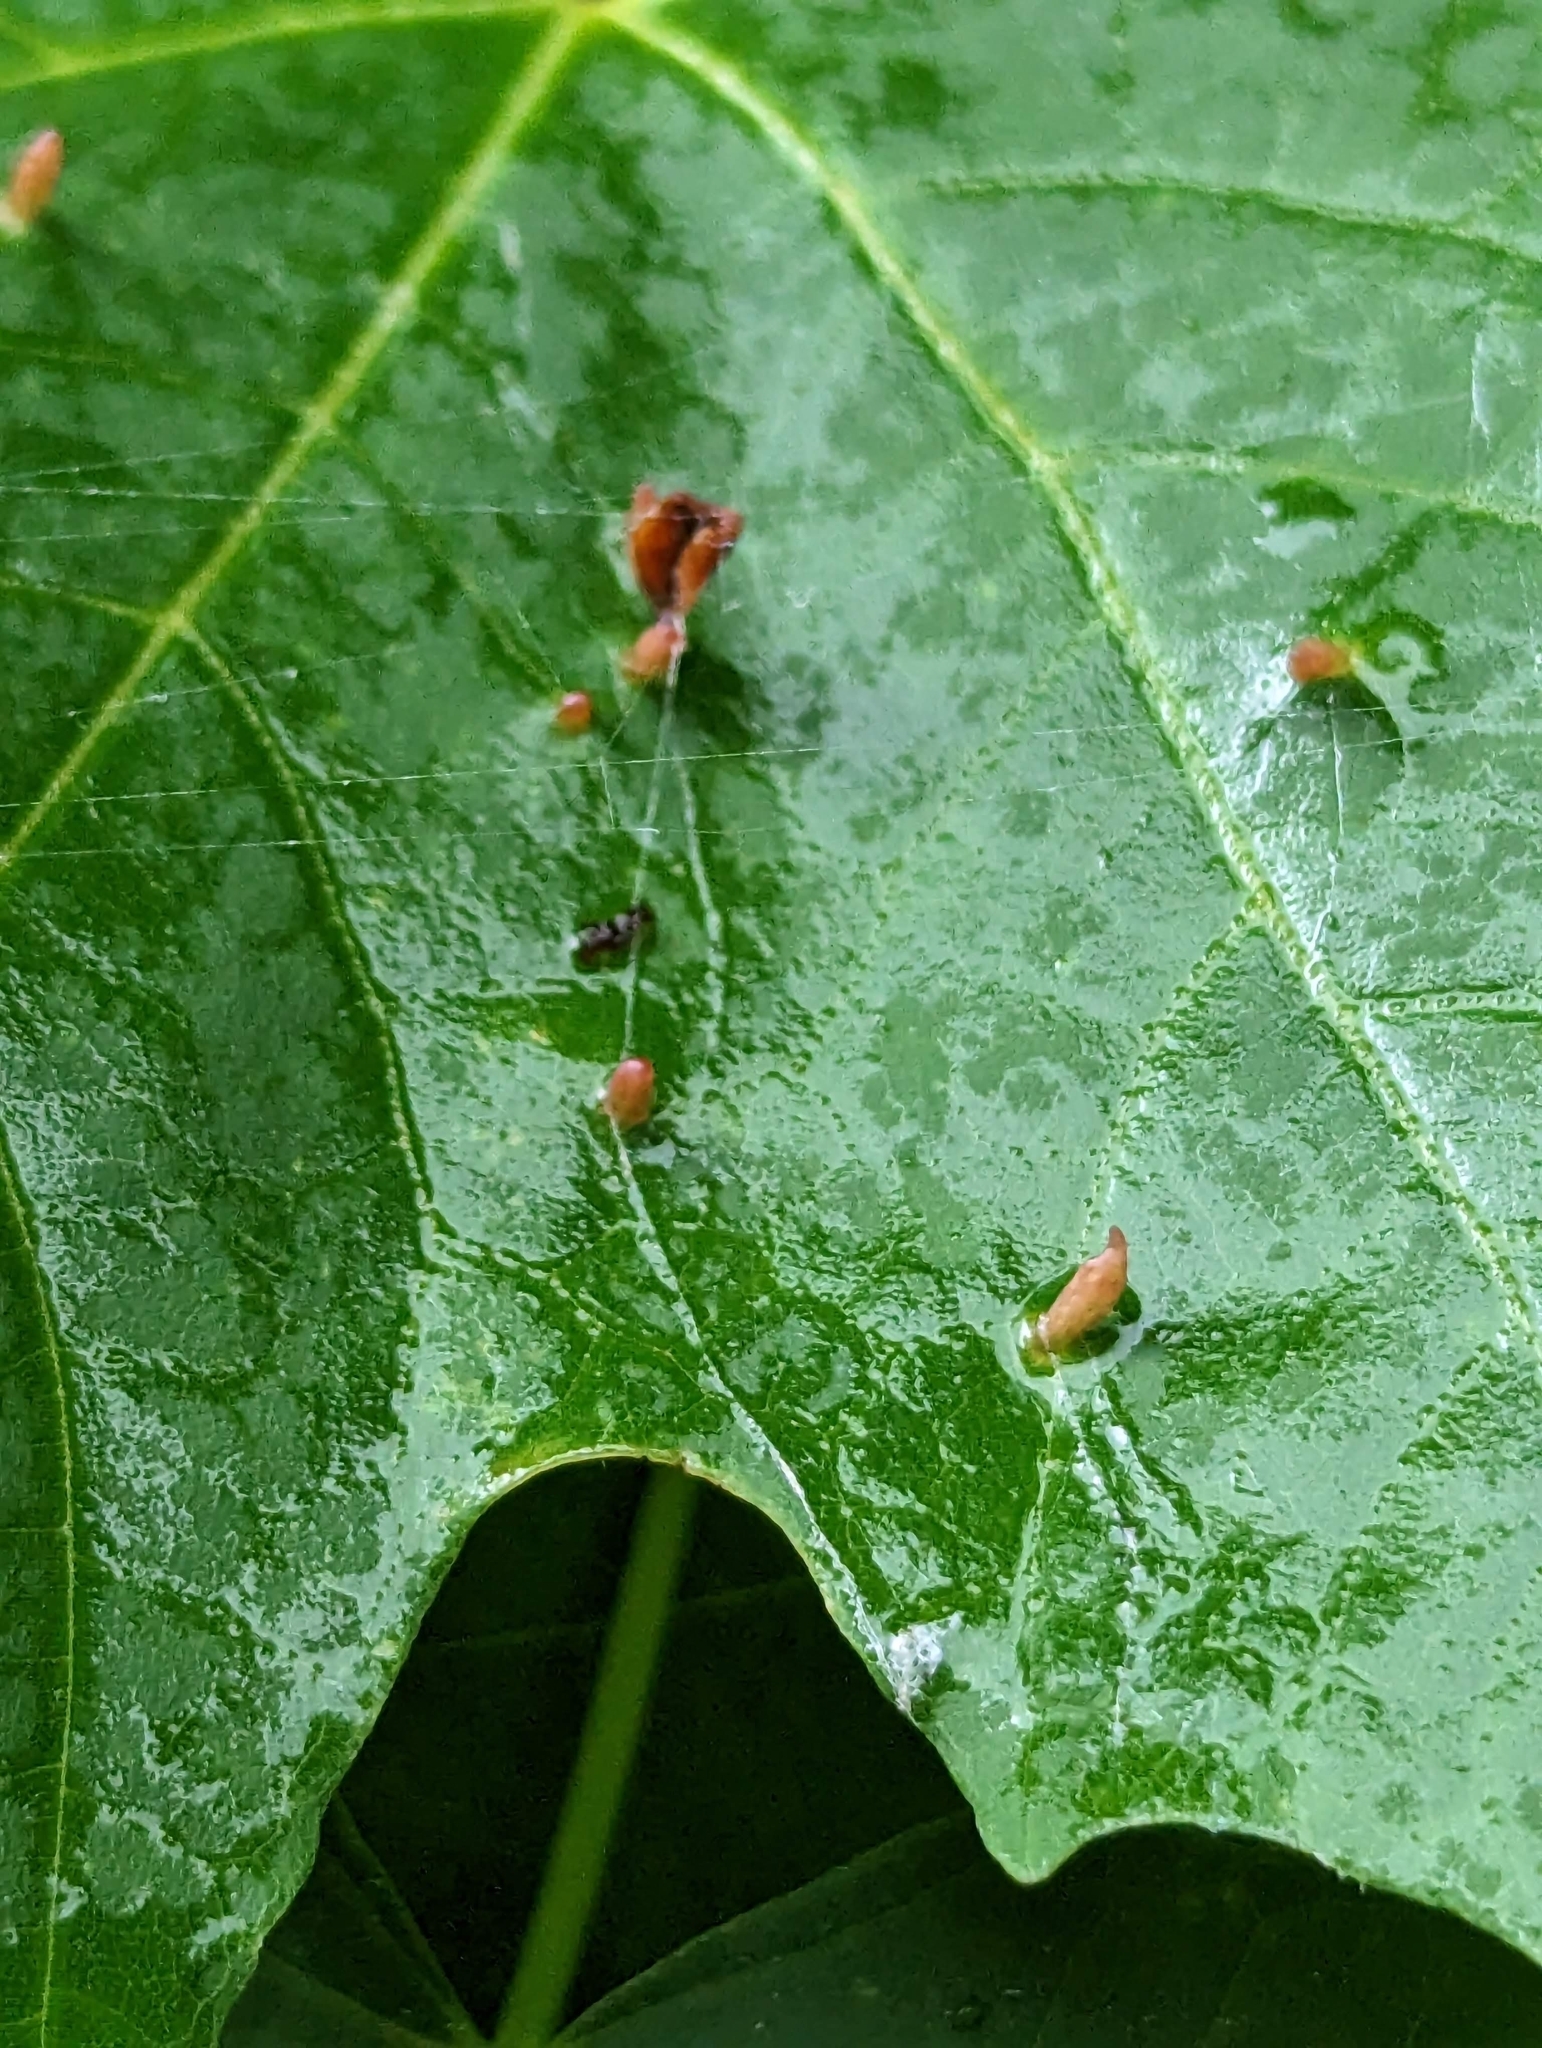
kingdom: Animalia
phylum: Arthropoda
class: Arachnida
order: Trombidiformes
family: Eriophyidae
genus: Vasates
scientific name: Vasates aceriscrumena
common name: Maple spindle gall mite
